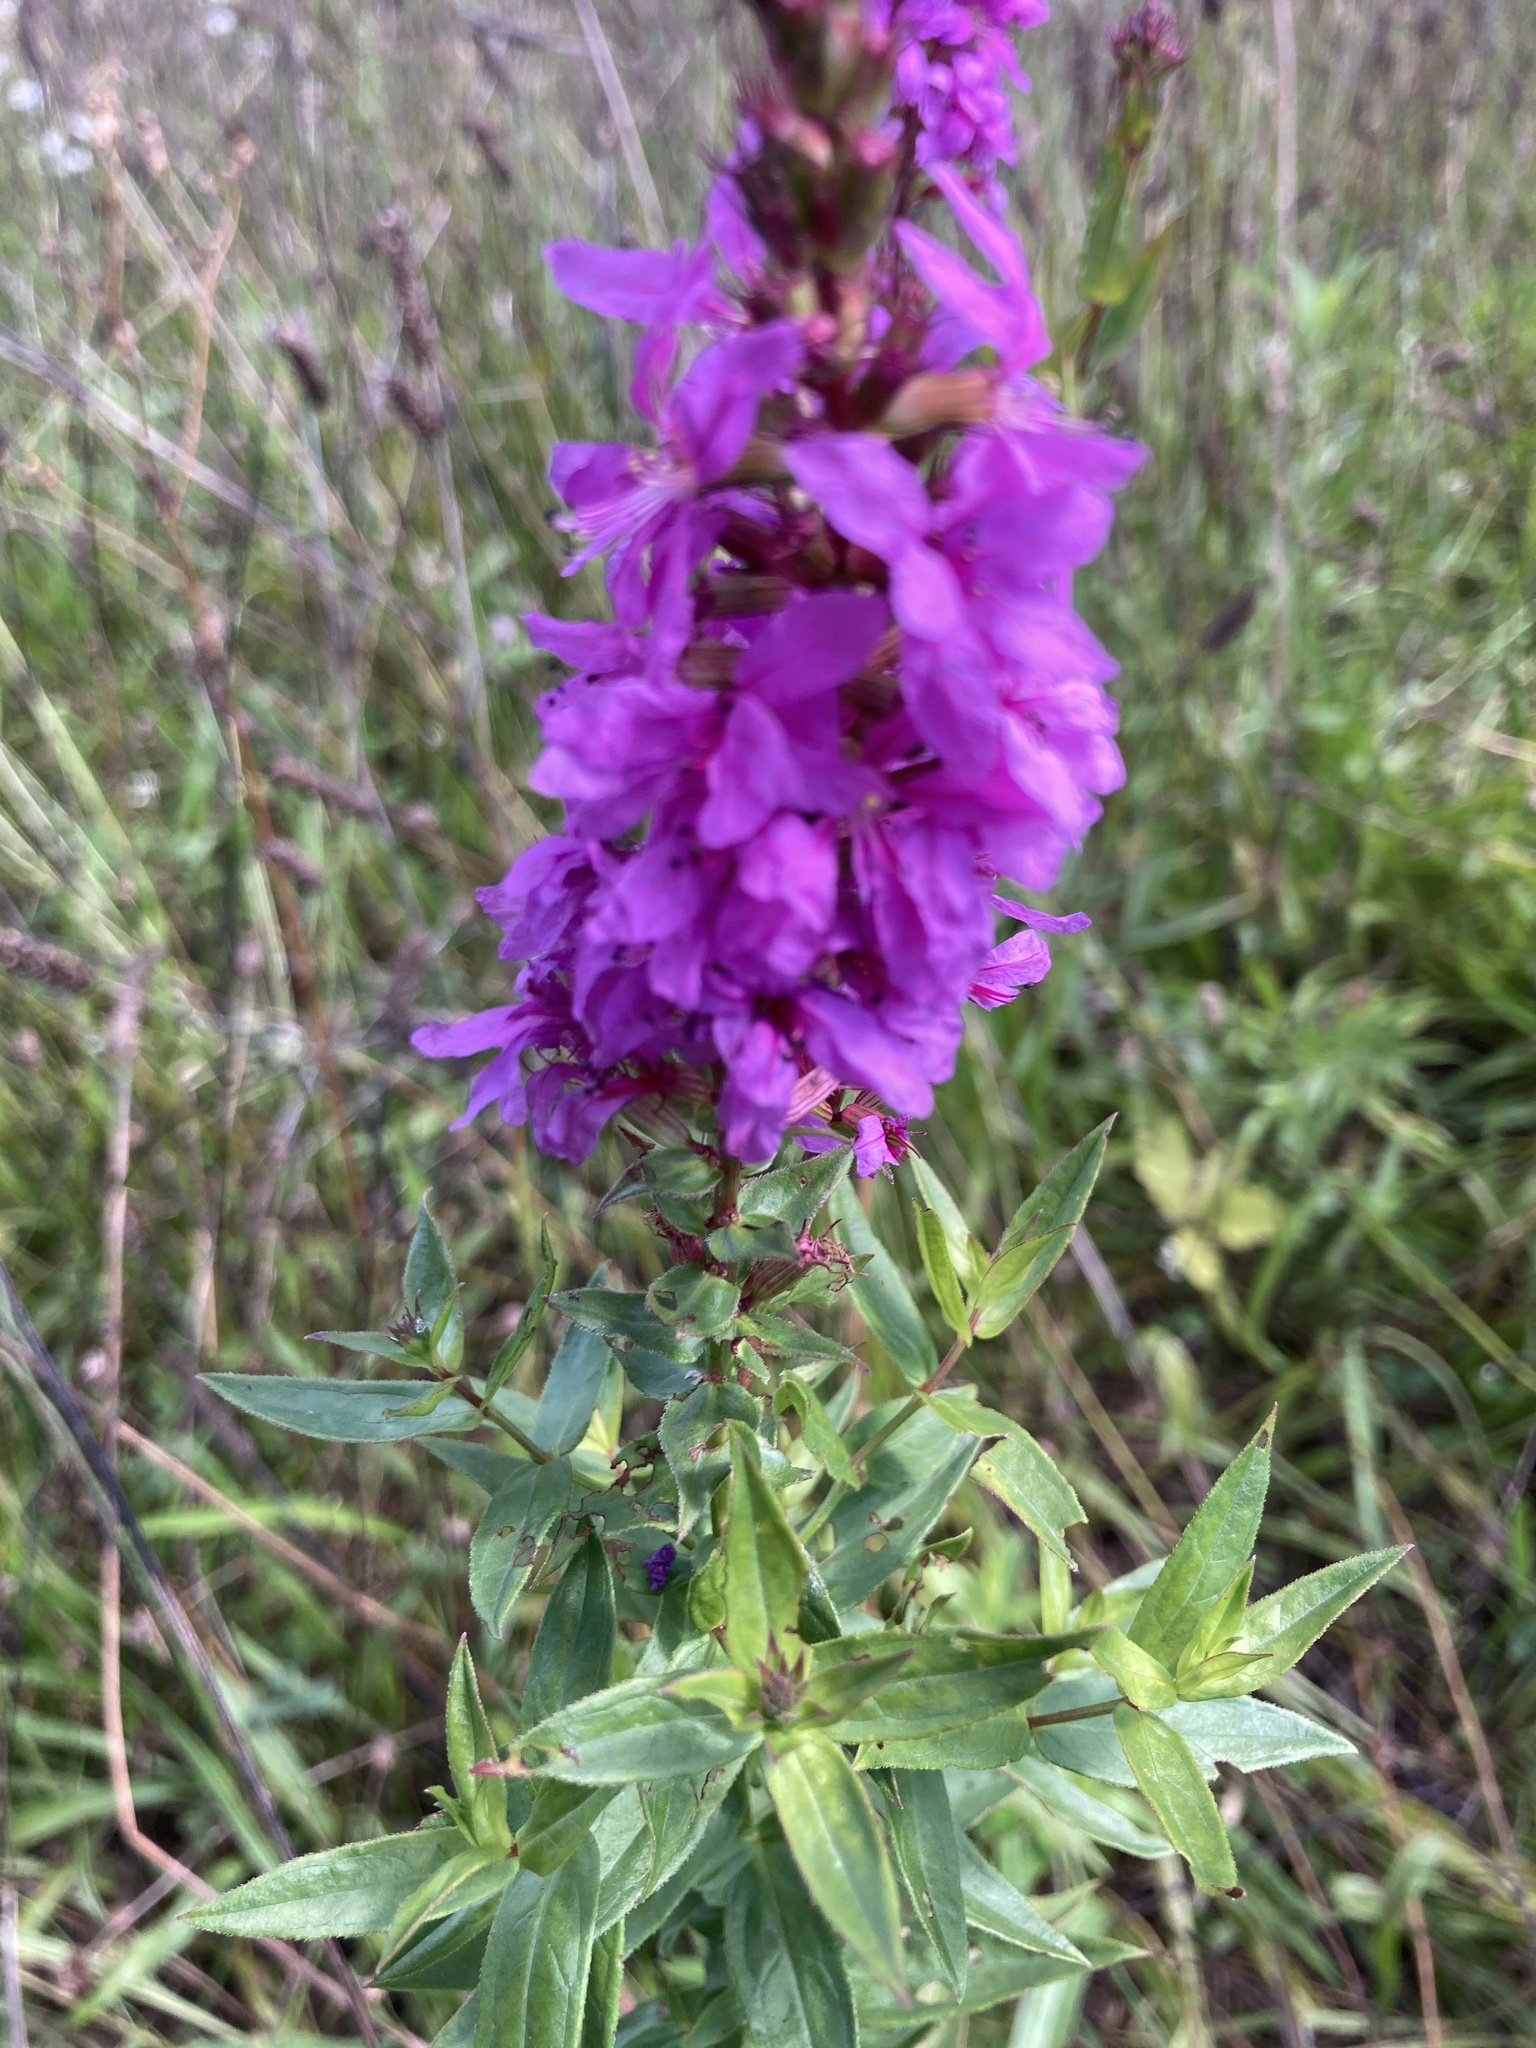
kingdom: Plantae
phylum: Tracheophyta
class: Magnoliopsida
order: Myrtales
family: Lythraceae
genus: Lythrum
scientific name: Lythrum salicaria
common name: Purple loosestrife
